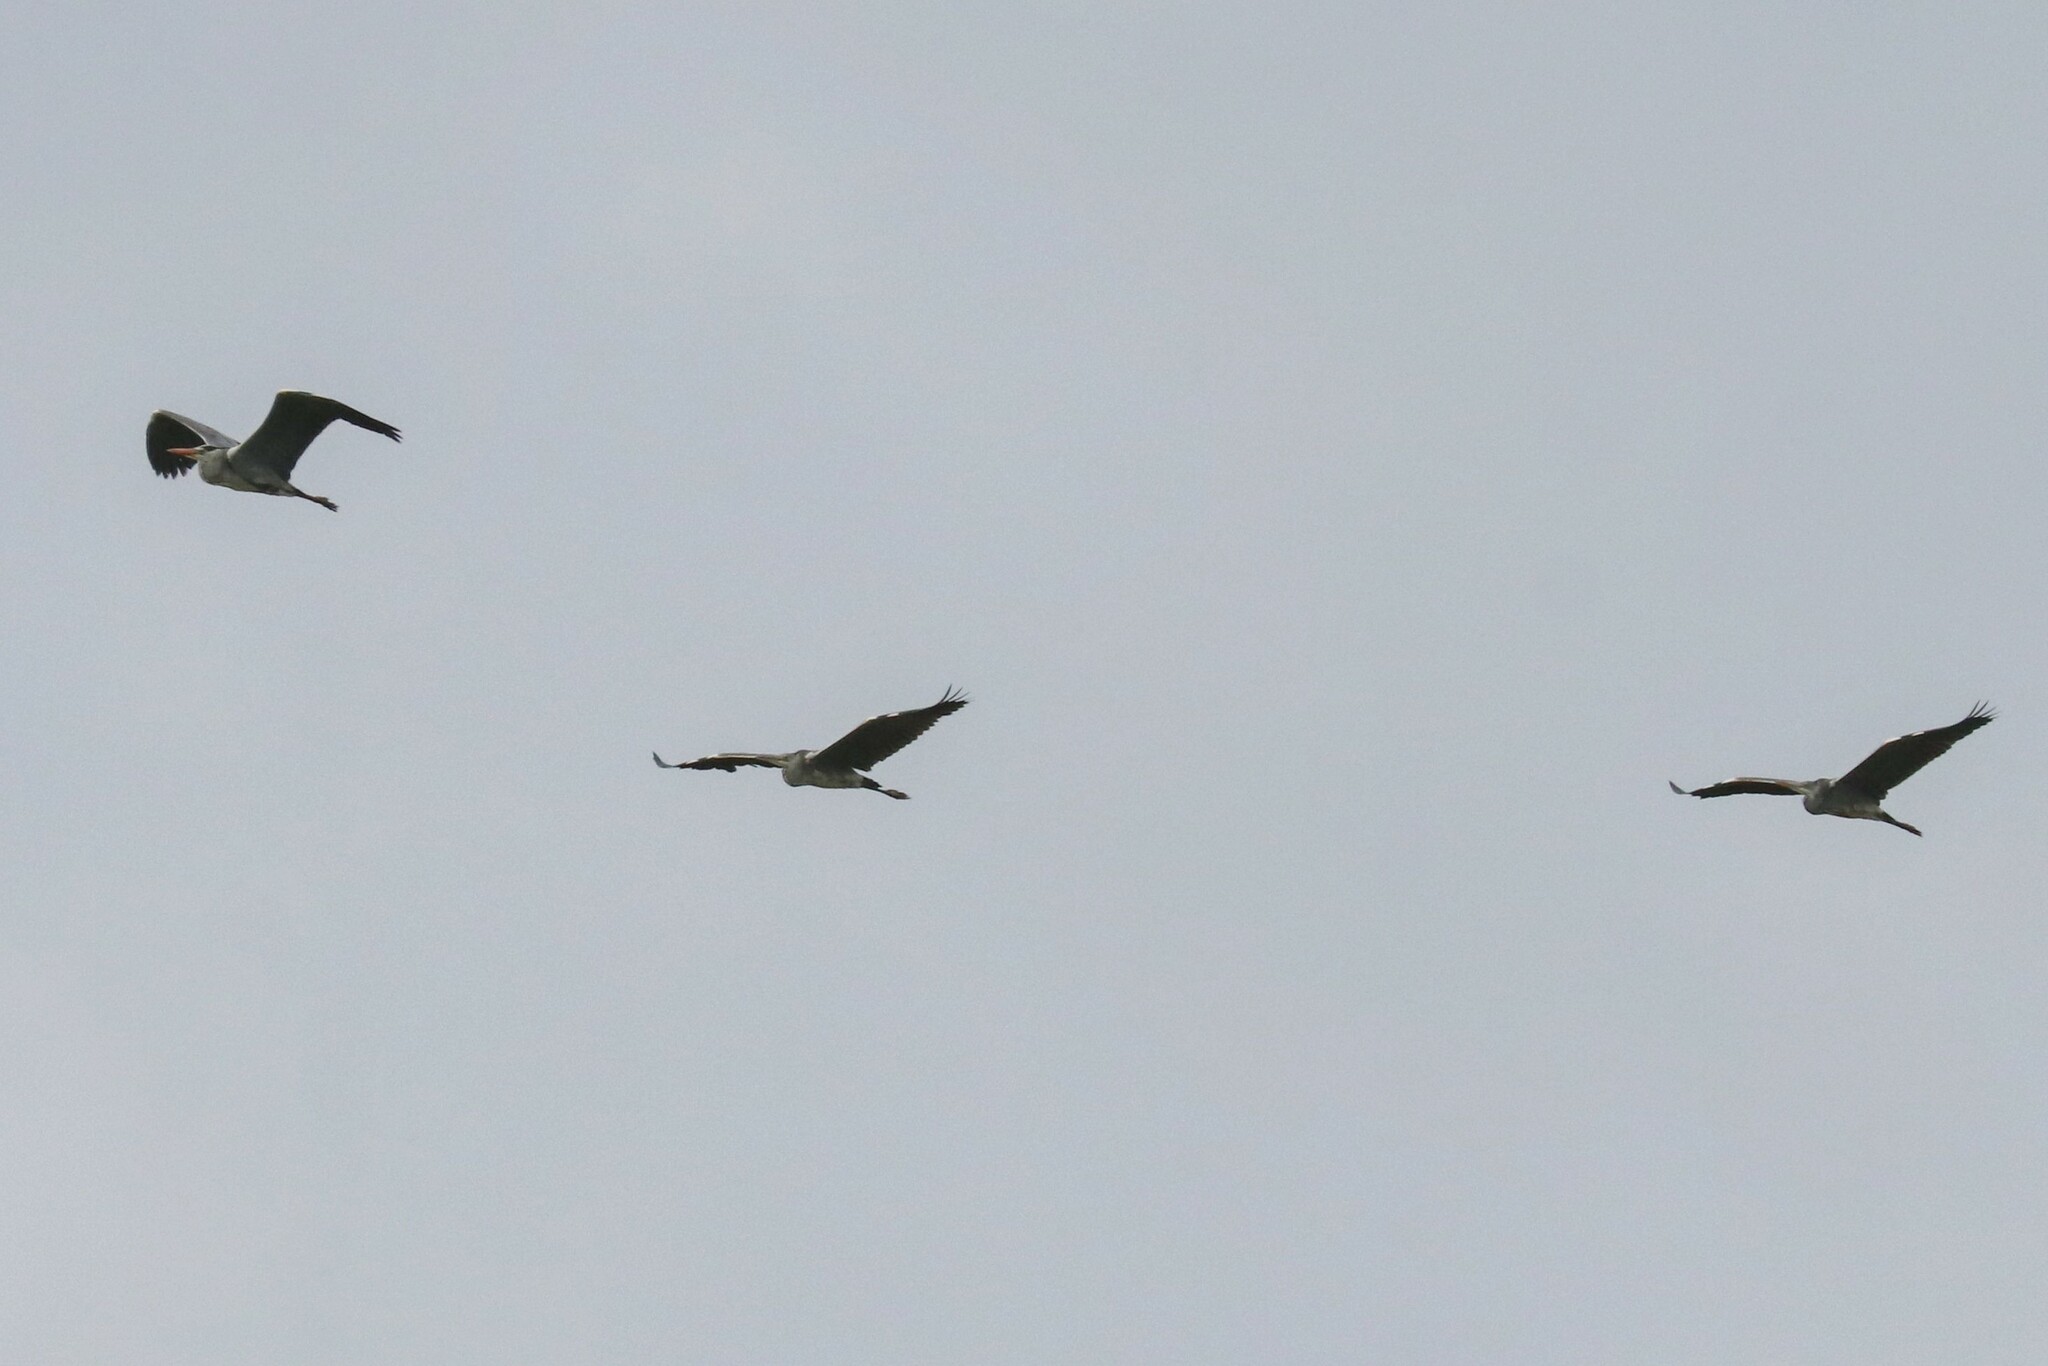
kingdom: Animalia
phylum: Chordata
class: Aves
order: Pelecaniformes
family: Ardeidae
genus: Ardea
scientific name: Ardea cinerea
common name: Grey heron
